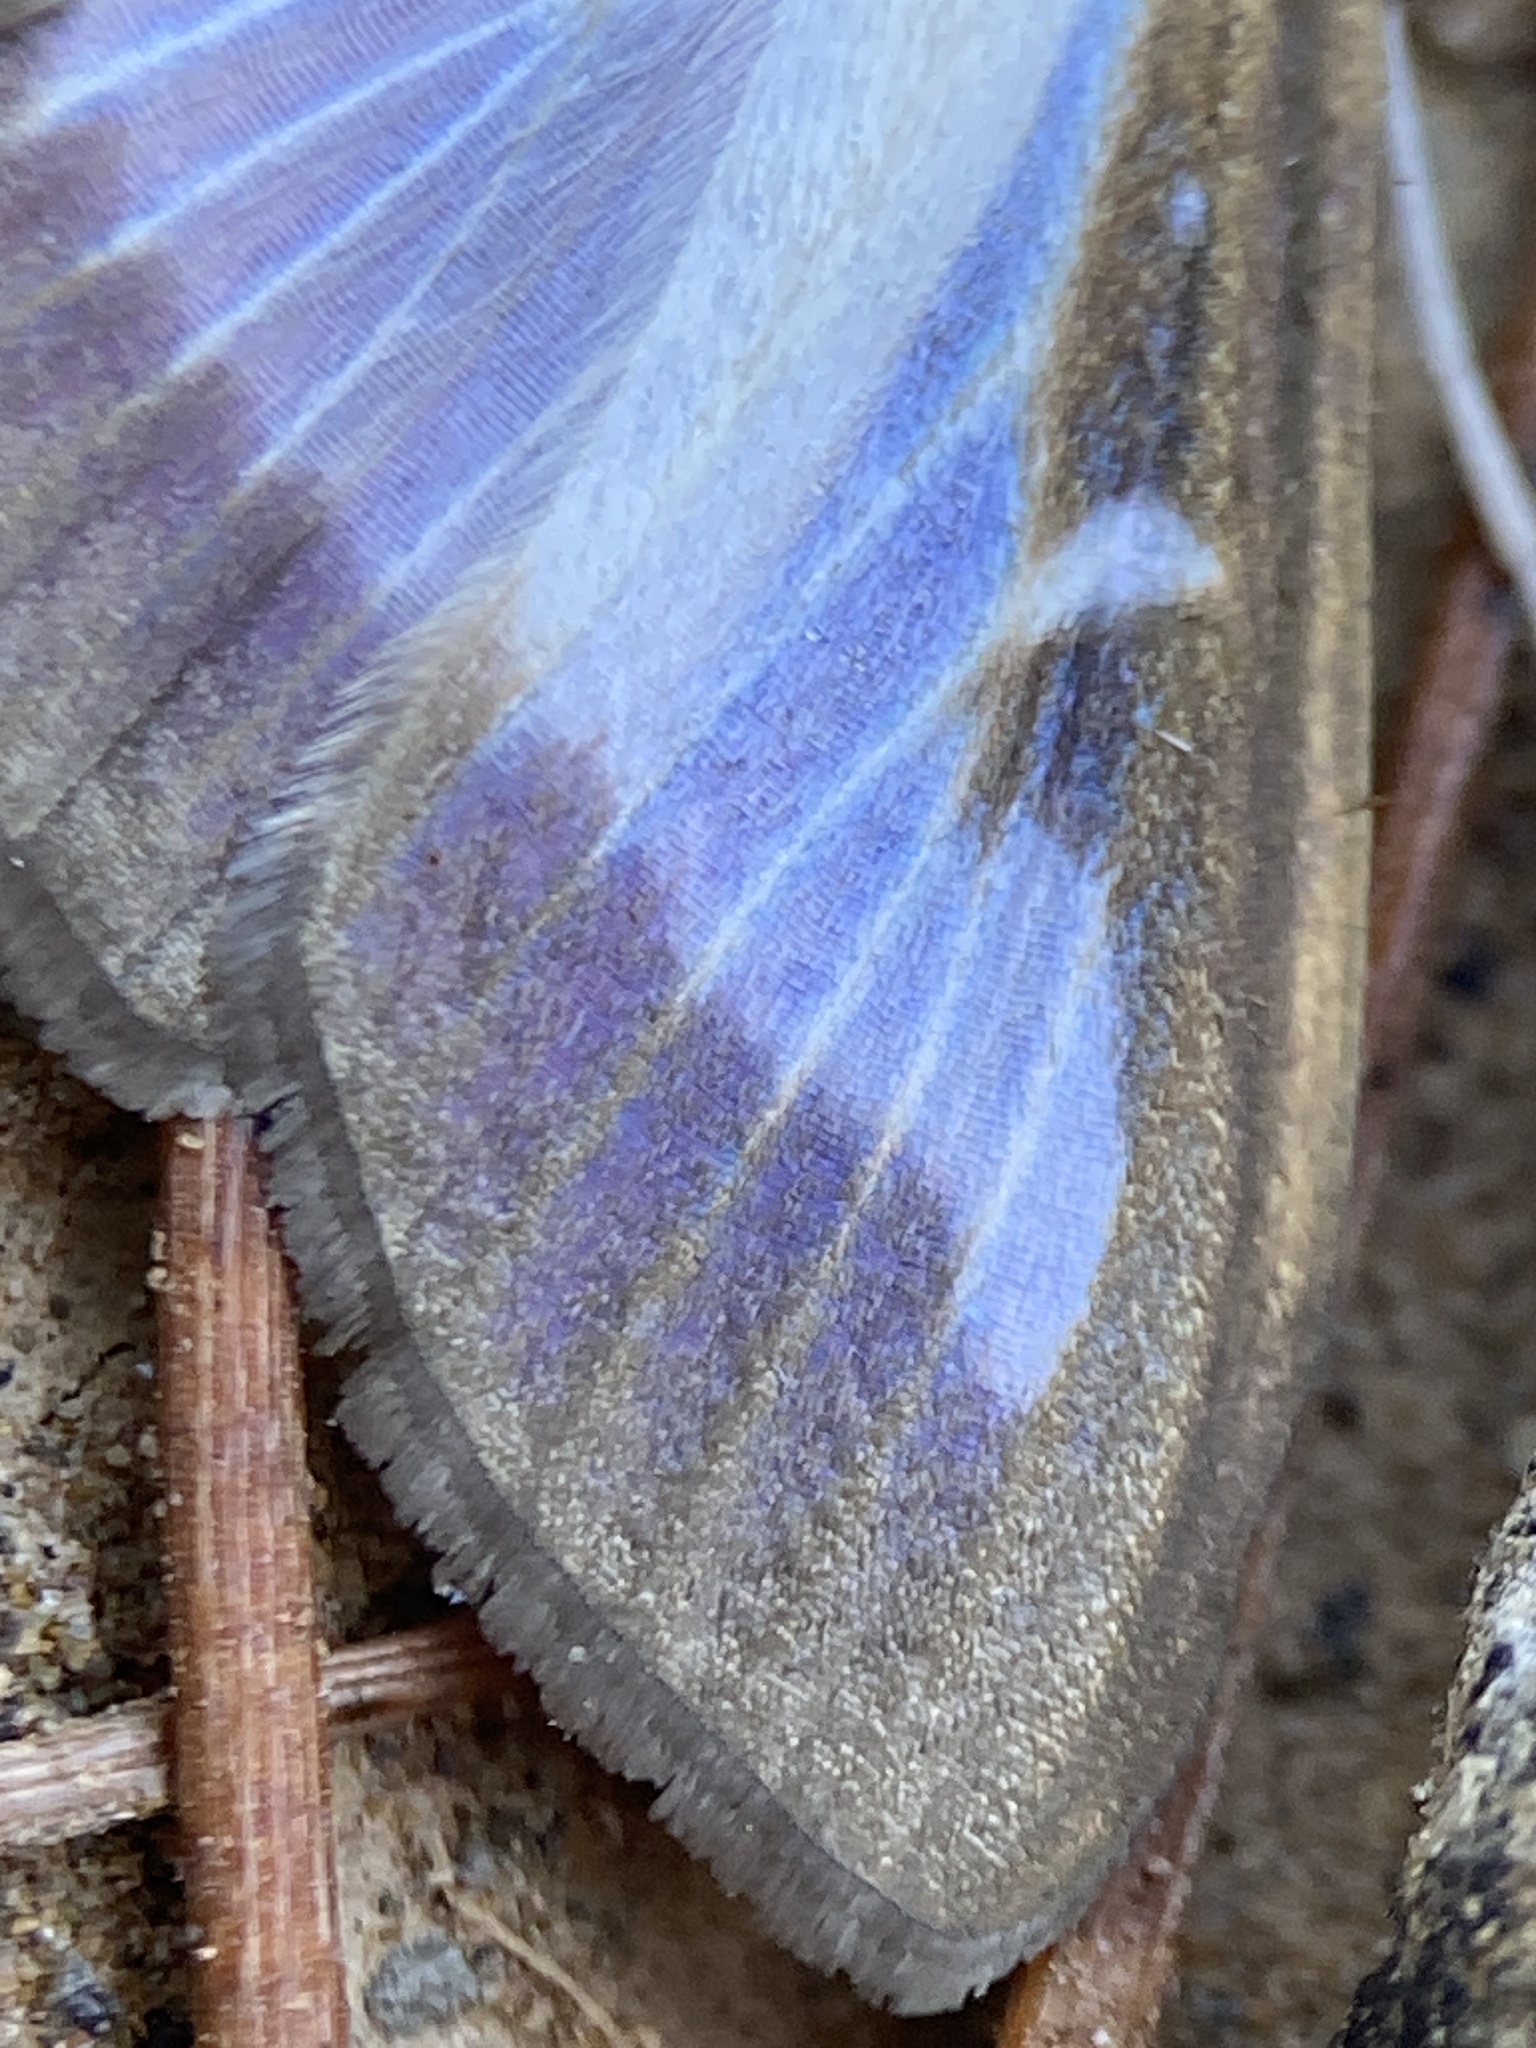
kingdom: Animalia
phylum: Arthropoda
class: Insecta
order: Lepidoptera
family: Crambidae
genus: Cydalima
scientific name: Cydalima perspectalis
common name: Box tree moth
